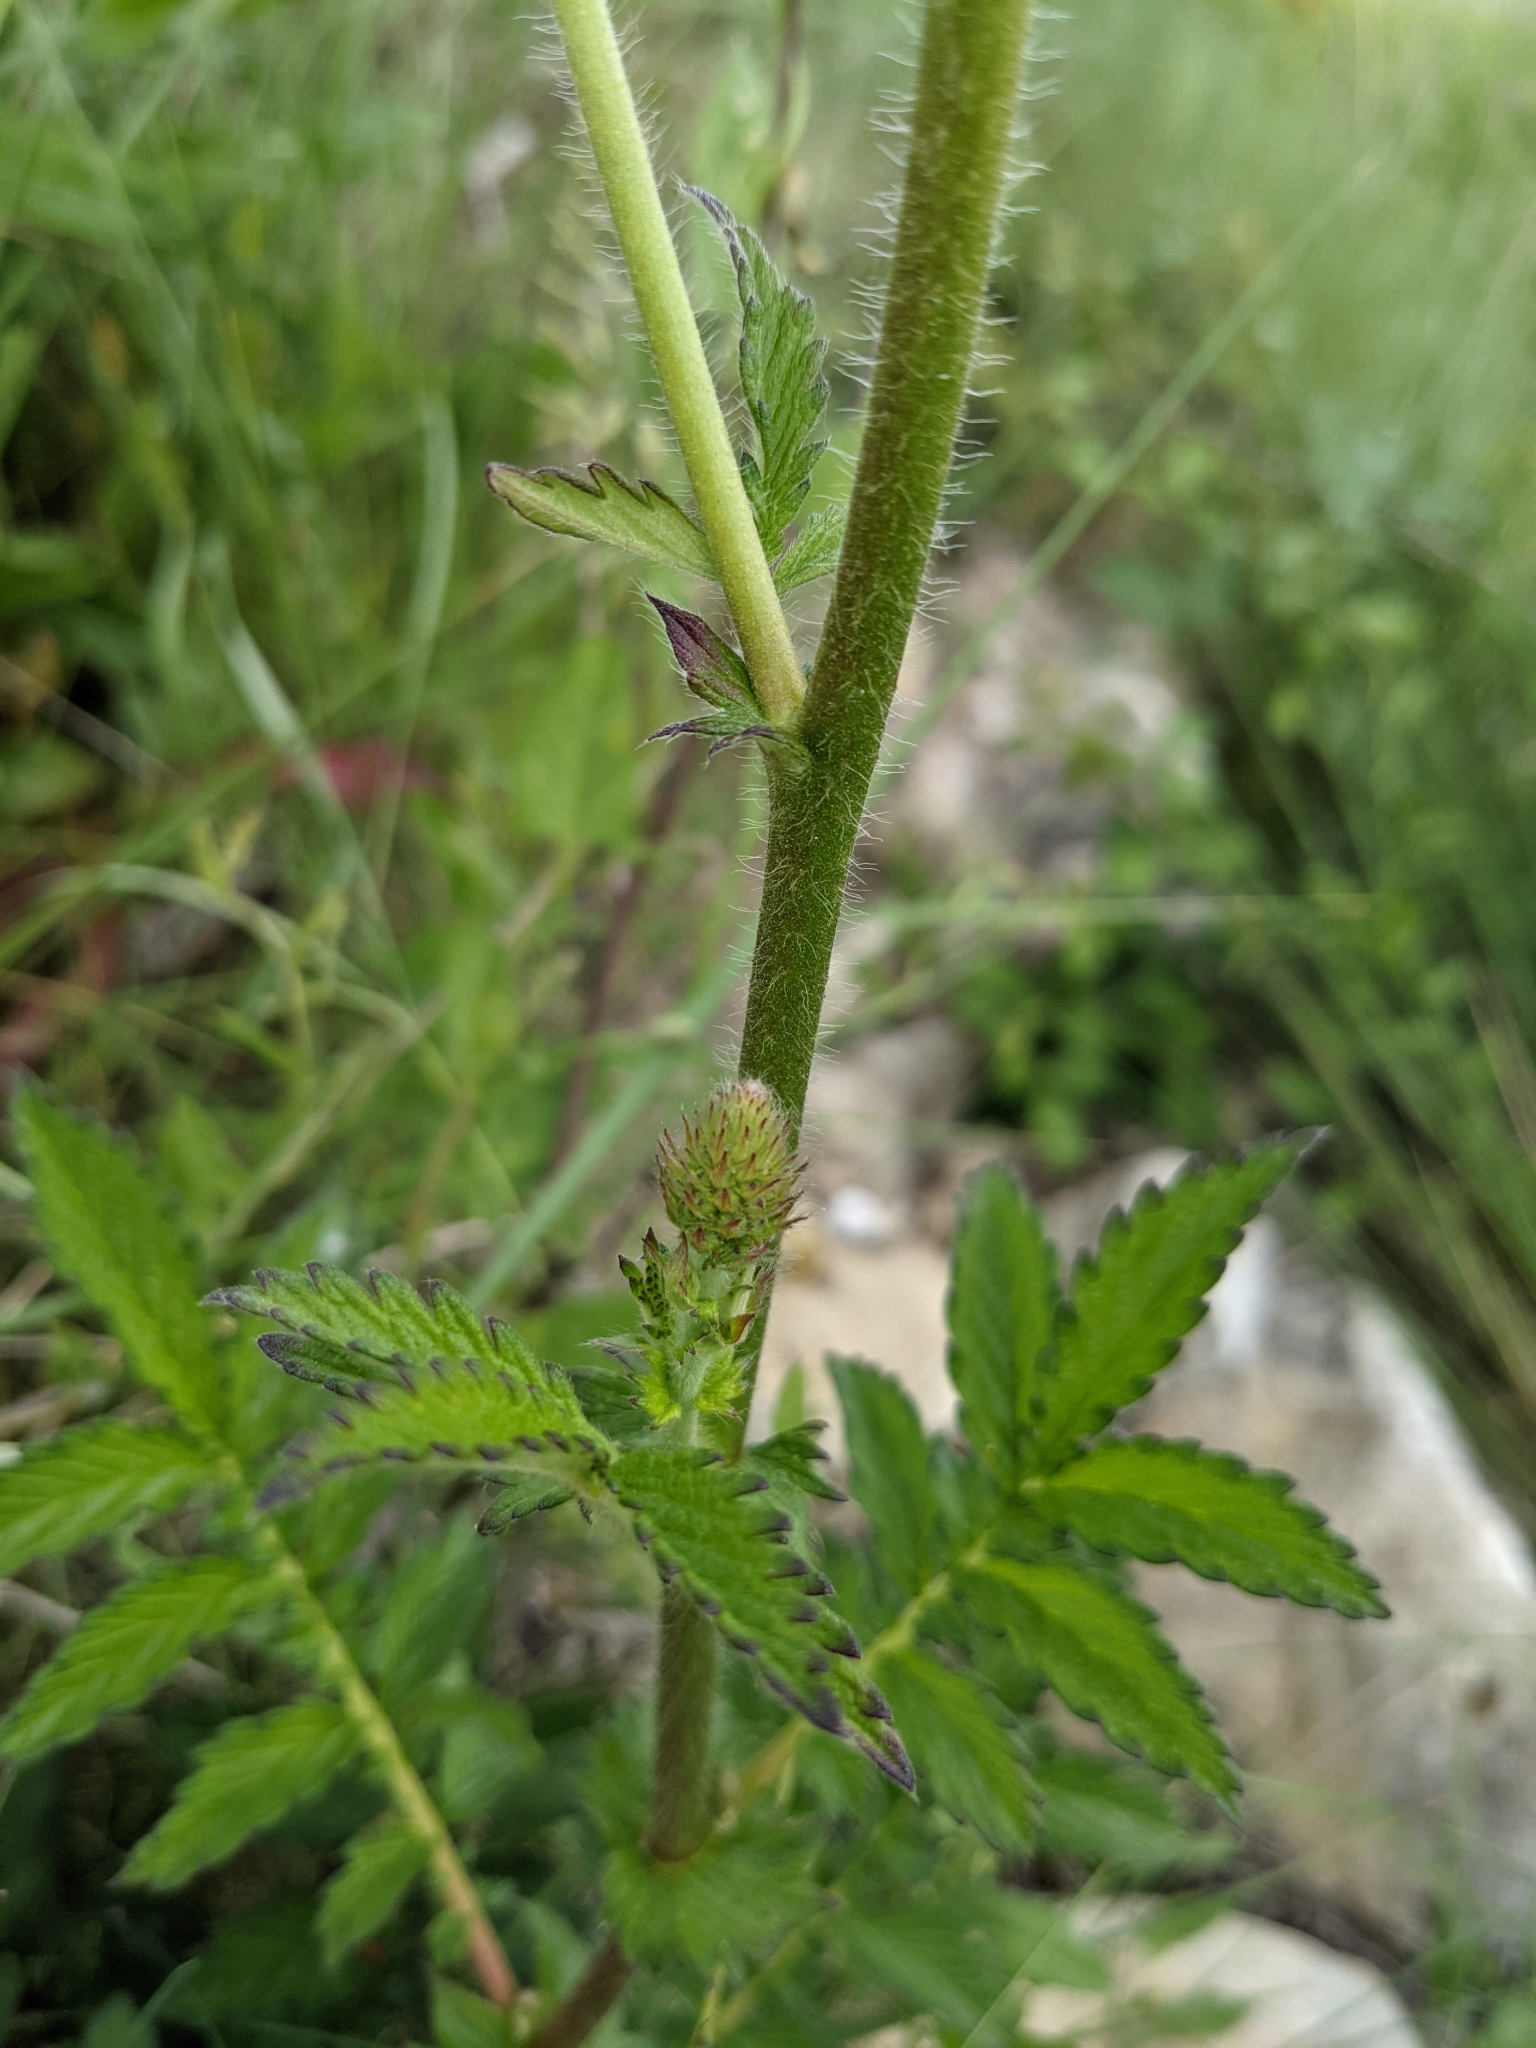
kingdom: Plantae
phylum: Tracheophyta
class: Magnoliopsida
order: Rosales
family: Rosaceae
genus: Agrimonia
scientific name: Agrimonia eupatoria
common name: Agrimony
